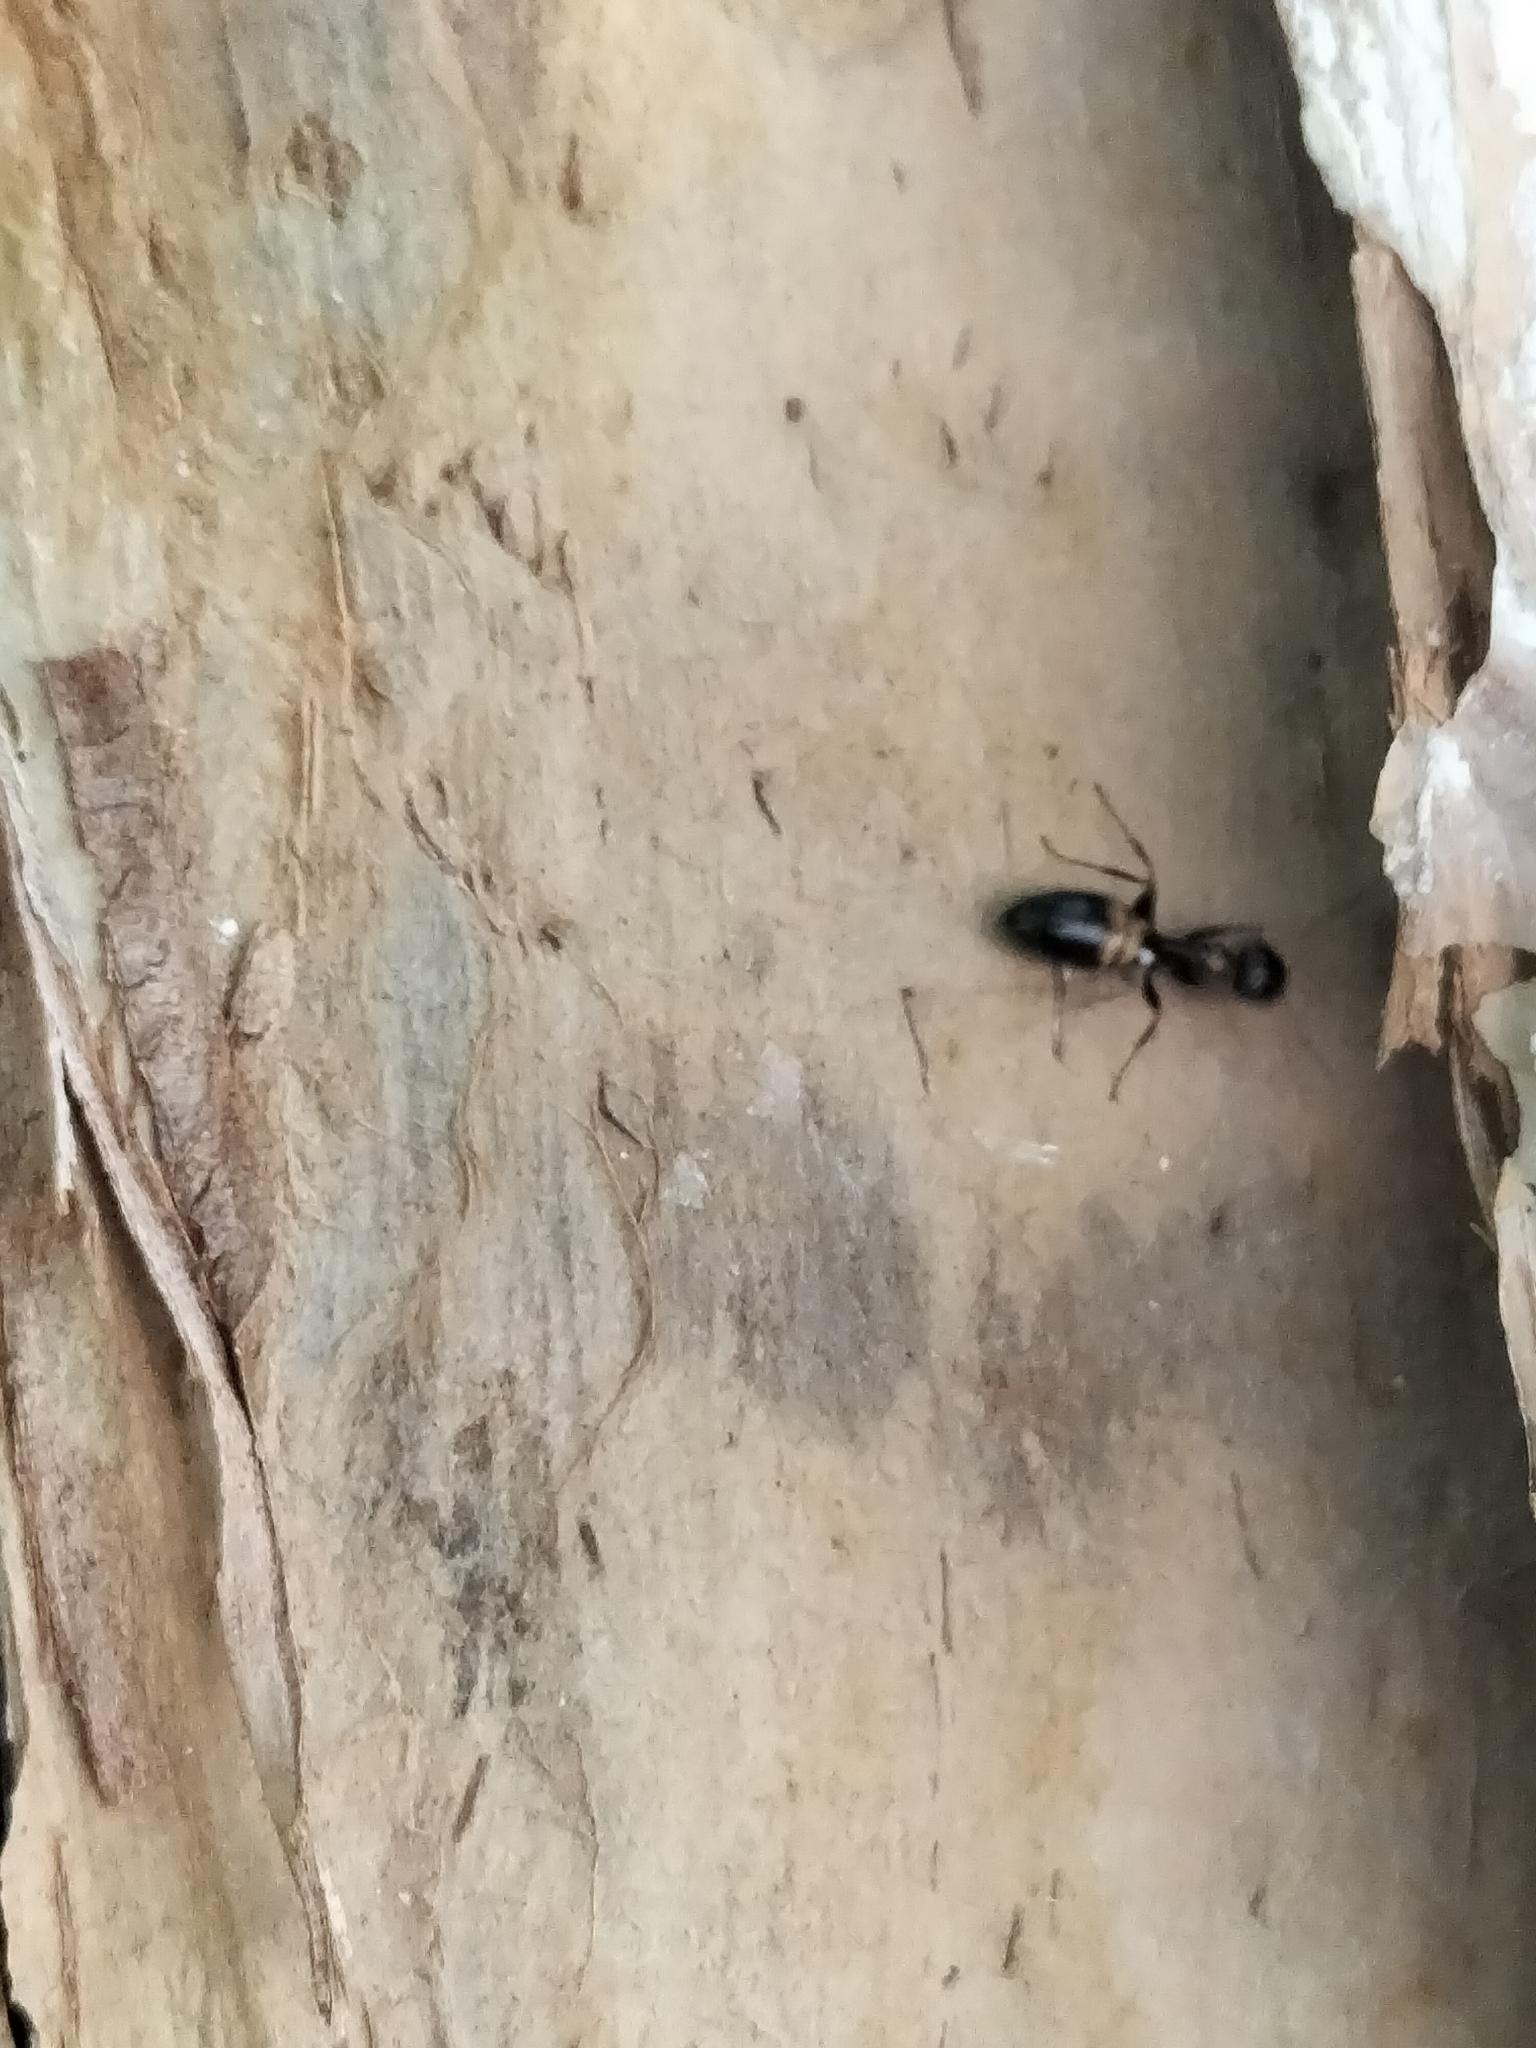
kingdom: Animalia
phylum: Arthropoda
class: Insecta
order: Hymenoptera
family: Formicidae
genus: Opisthopsis
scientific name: Opisthopsis respiciens
